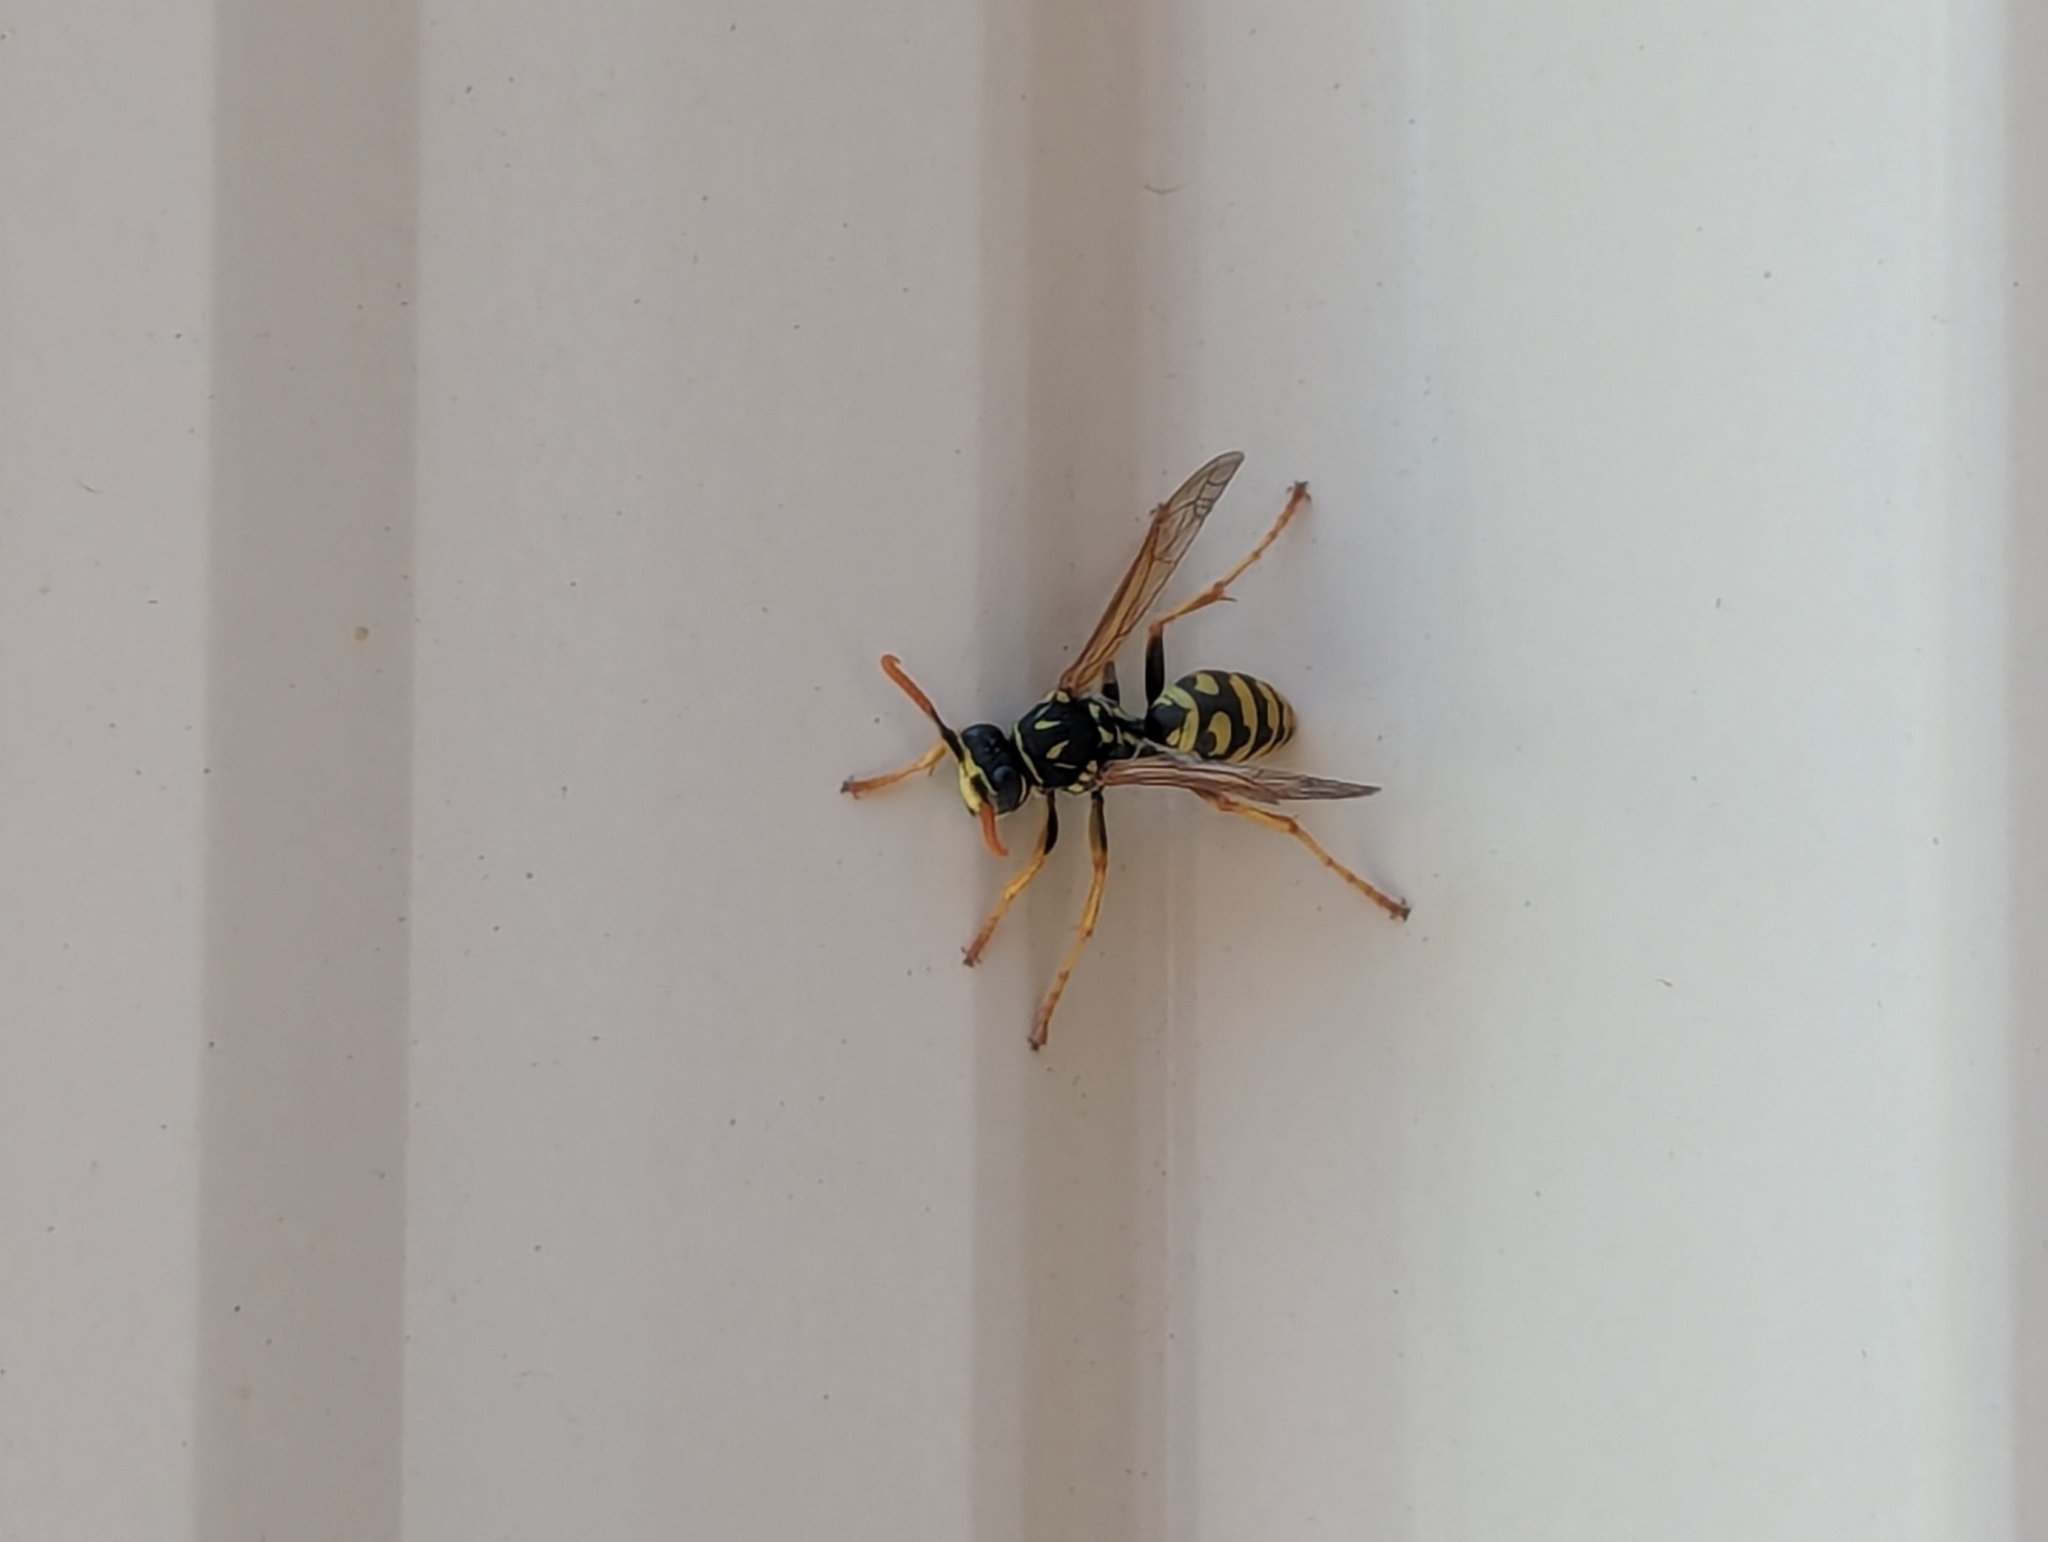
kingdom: Animalia
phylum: Arthropoda
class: Insecta
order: Hymenoptera
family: Eumenidae
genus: Polistes
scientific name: Polistes dominula
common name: Paper wasp
